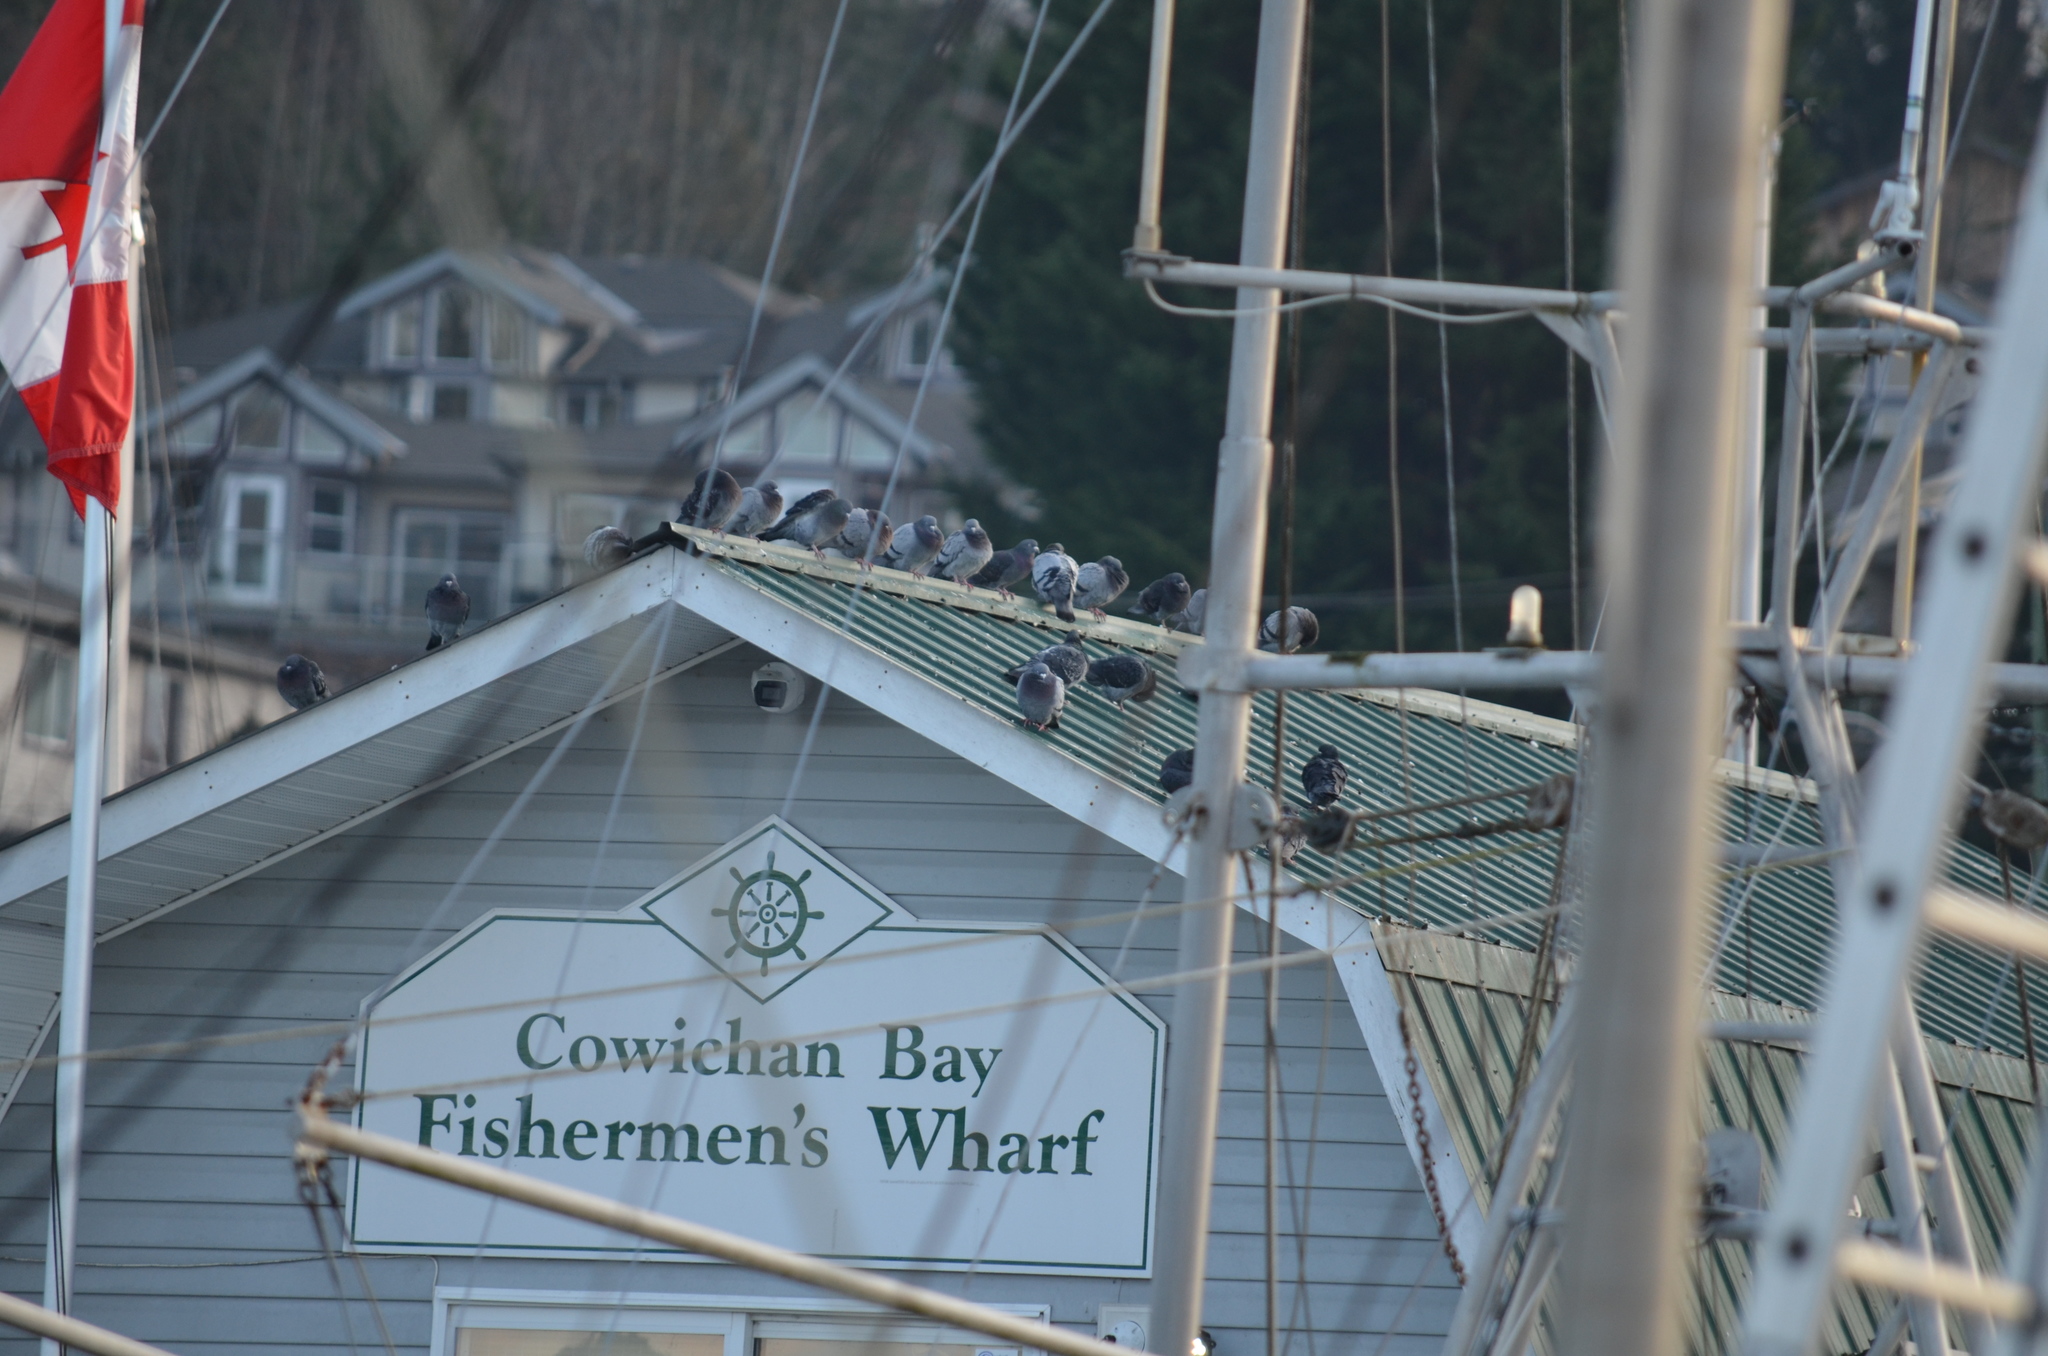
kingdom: Animalia
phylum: Chordata
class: Aves
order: Columbiformes
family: Columbidae
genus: Columba
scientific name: Columba livia
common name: Rock pigeon
